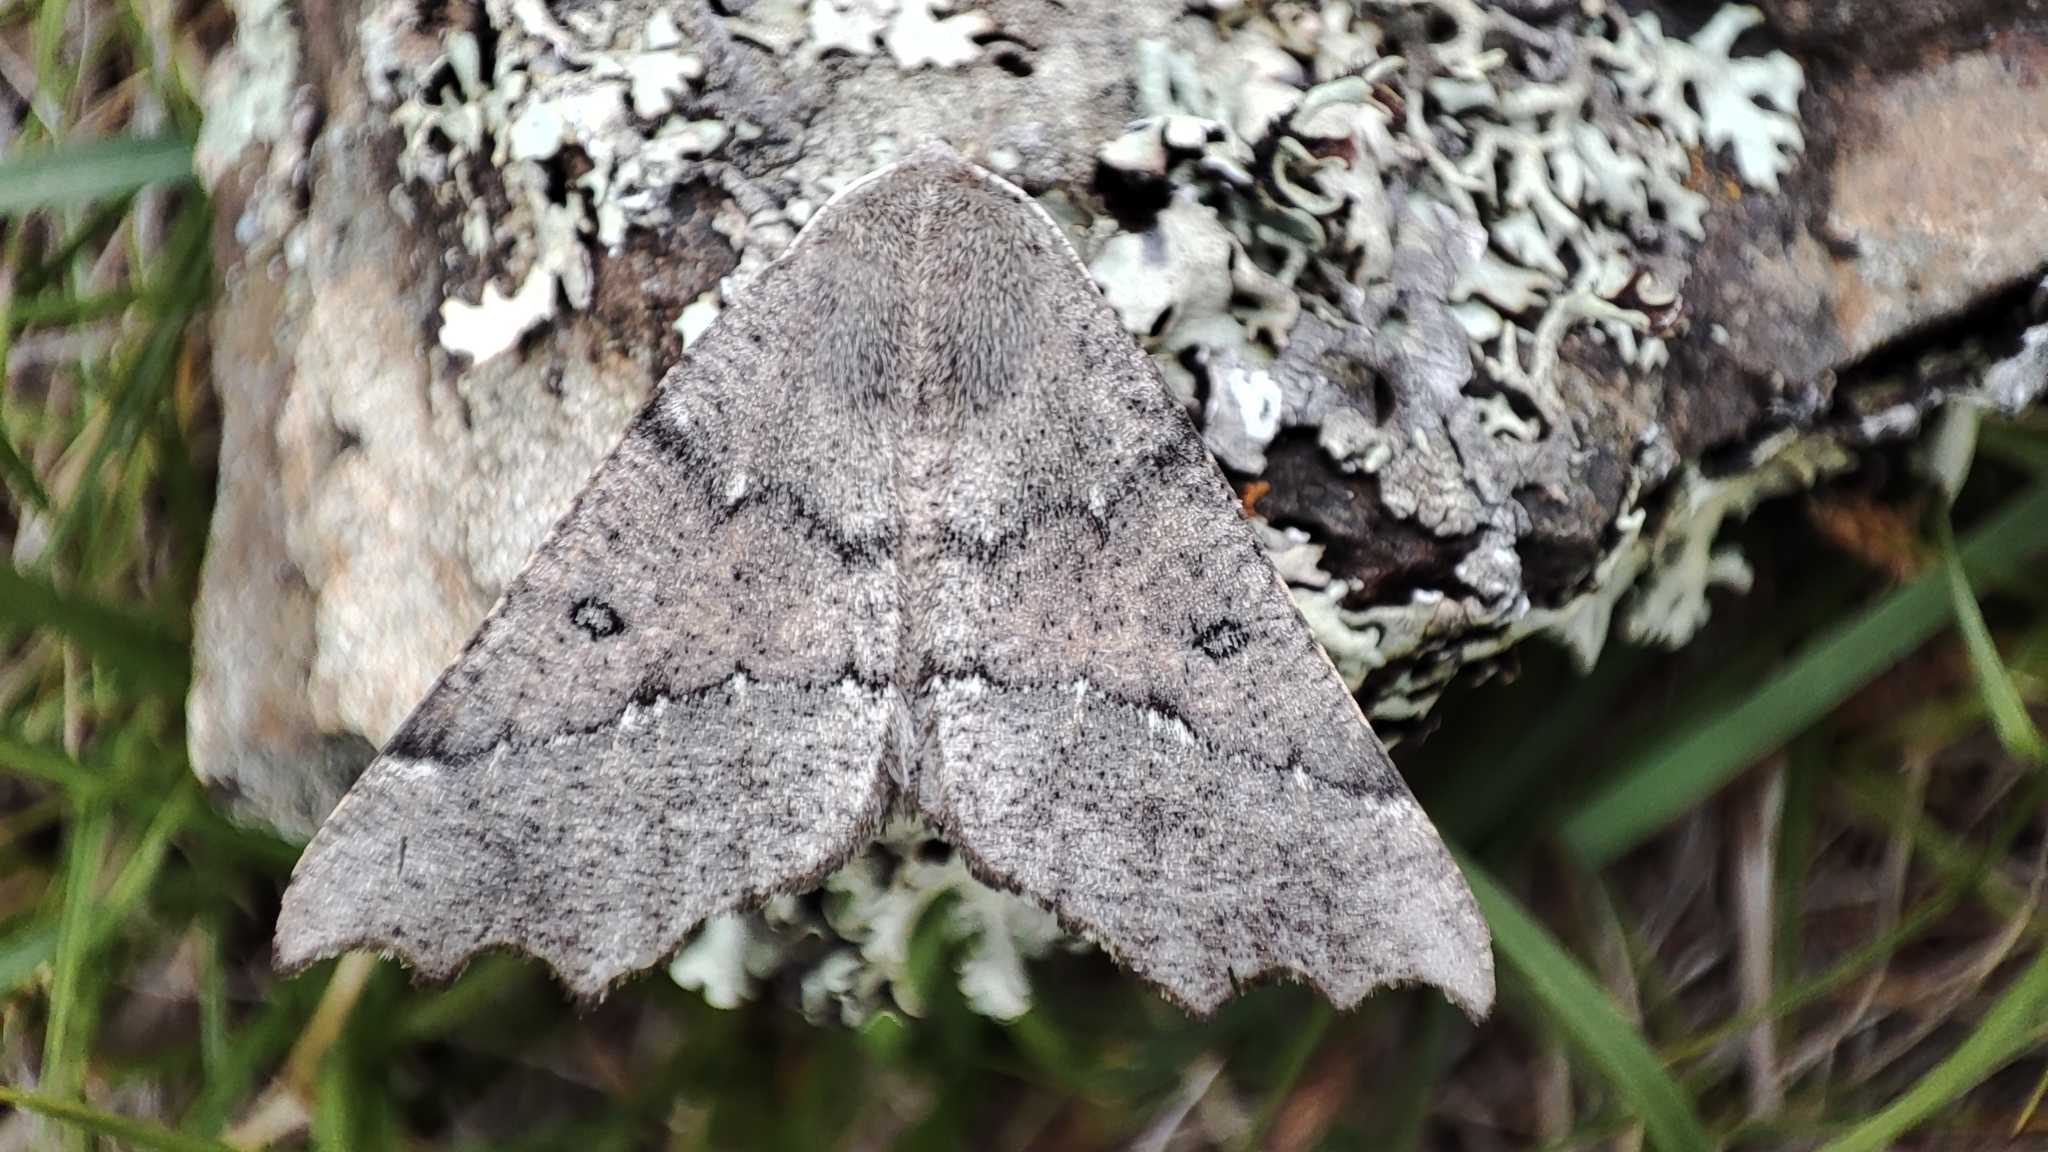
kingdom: Animalia
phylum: Arthropoda
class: Insecta
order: Lepidoptera
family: Geometridae
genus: Odontopera
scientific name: Odontopera bidentata
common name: Scalloped hazel
